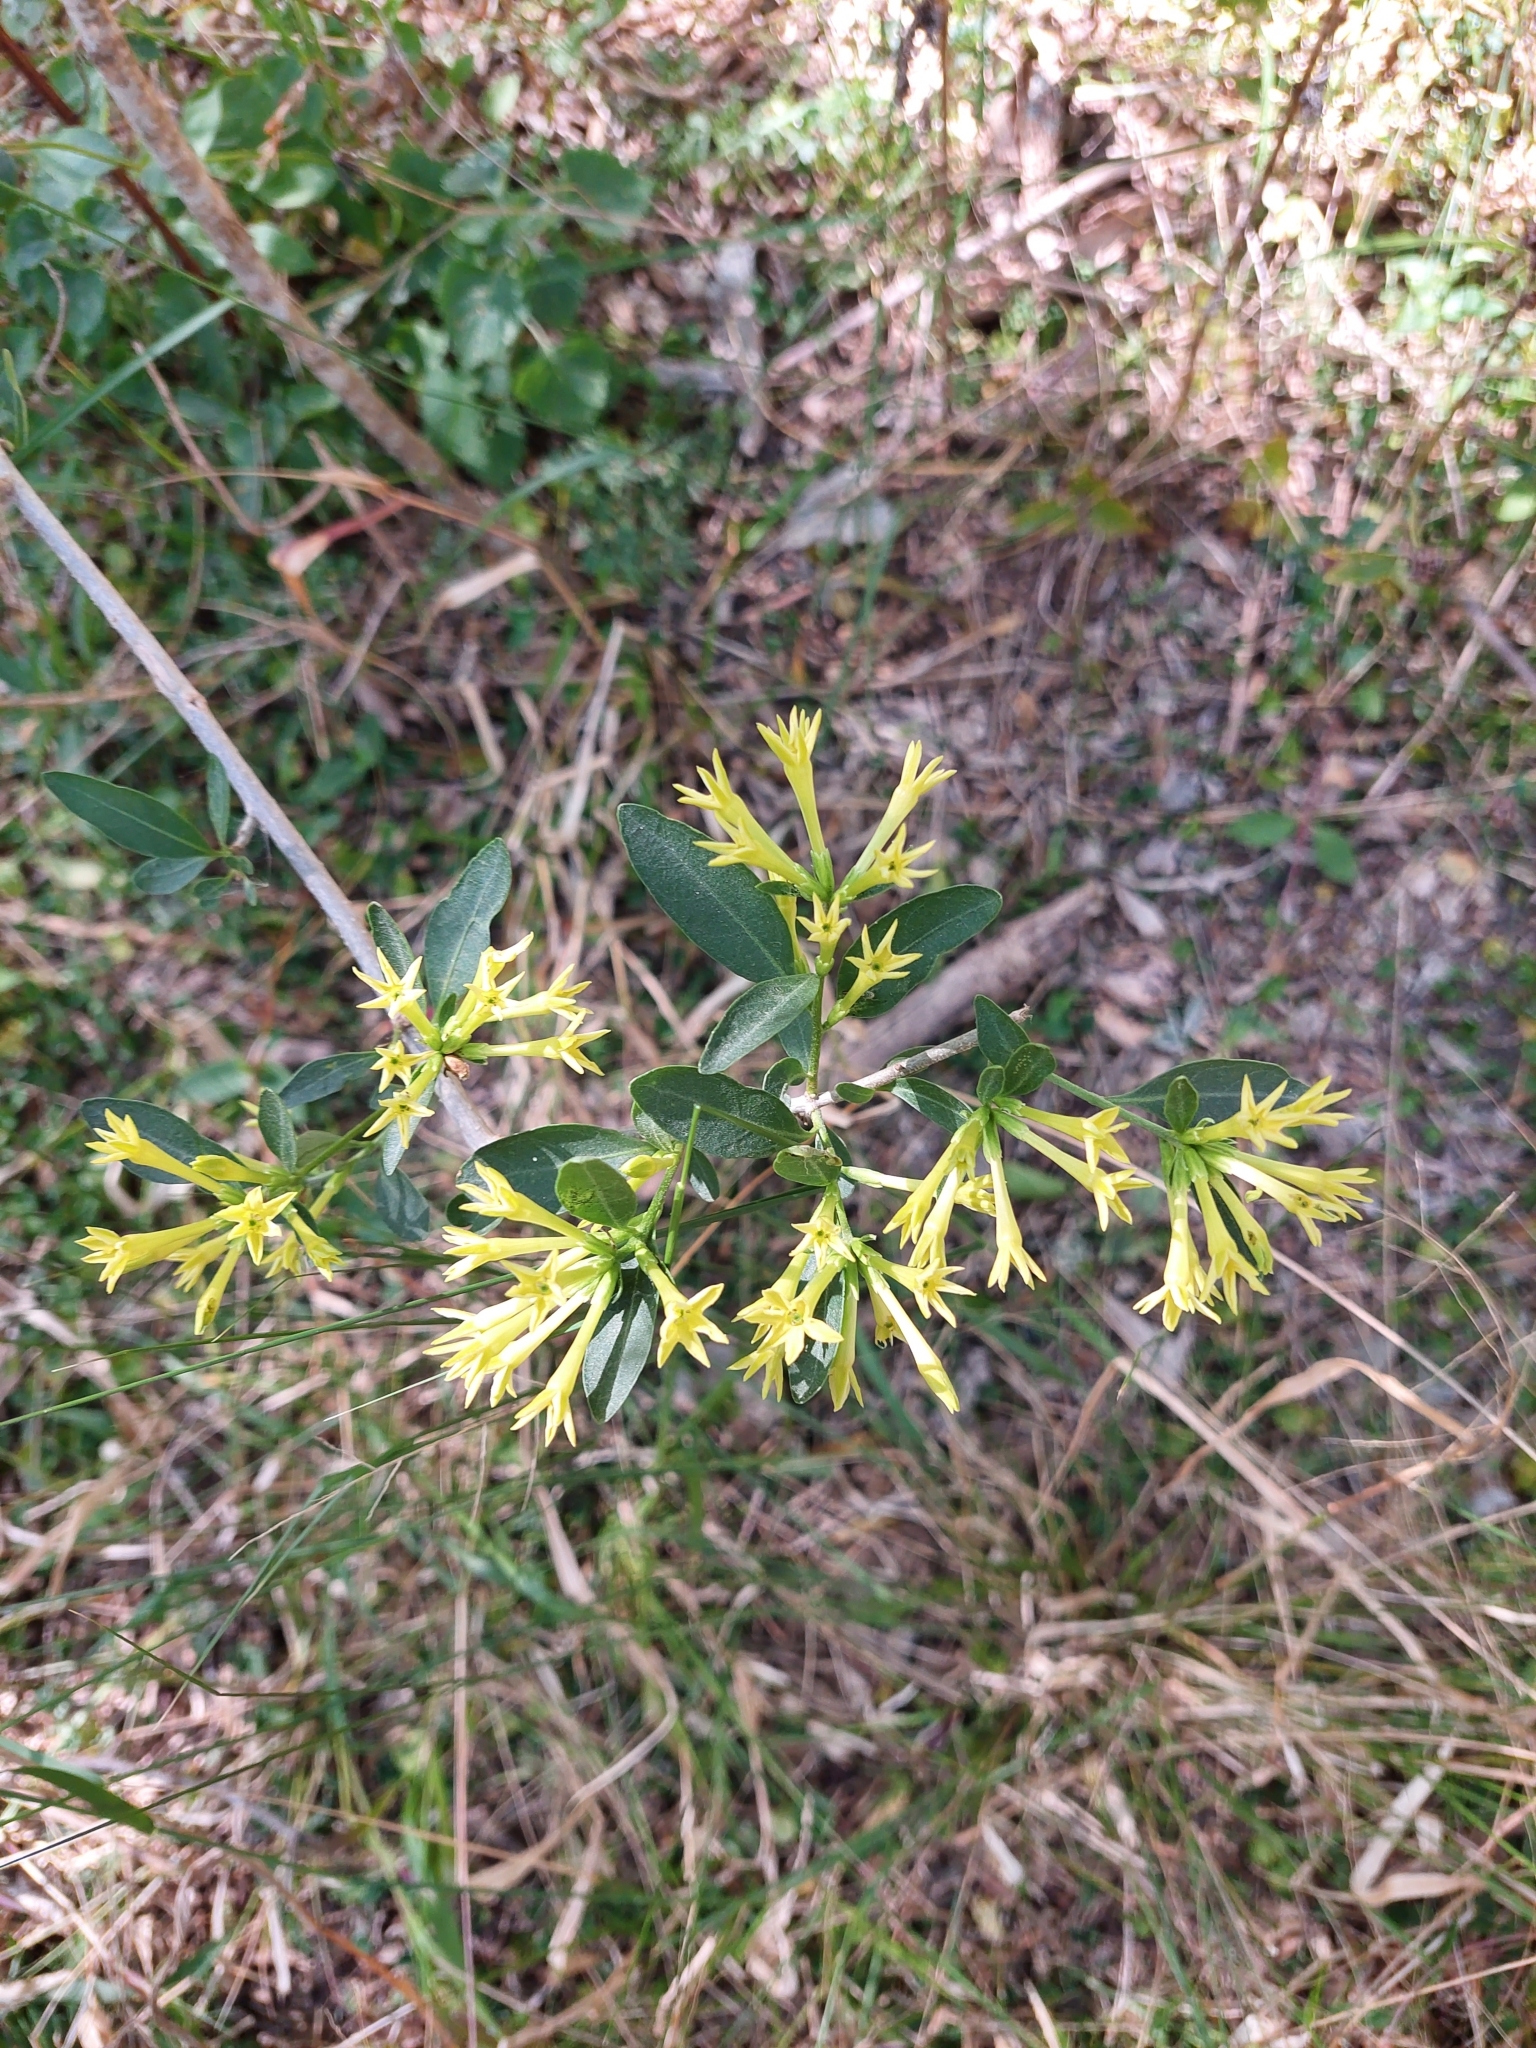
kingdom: Plantae
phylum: Tracheophyta
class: Magnoliopsida
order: Solanales
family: Solanaceae
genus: Cestrum
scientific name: Cestrum parqui
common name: Chilean cestrum
